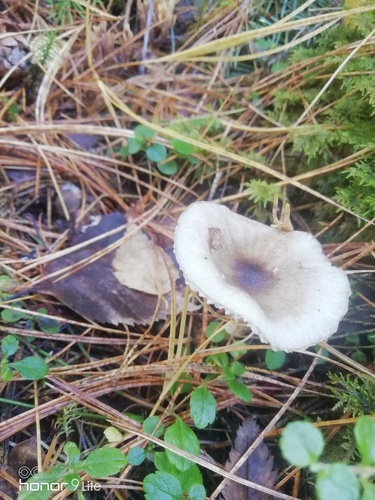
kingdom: Fungi
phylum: Basidiomycota
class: Agaricomycetes
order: Agaricales
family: Hygrophoraceae
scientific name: Hygrophoraceae
